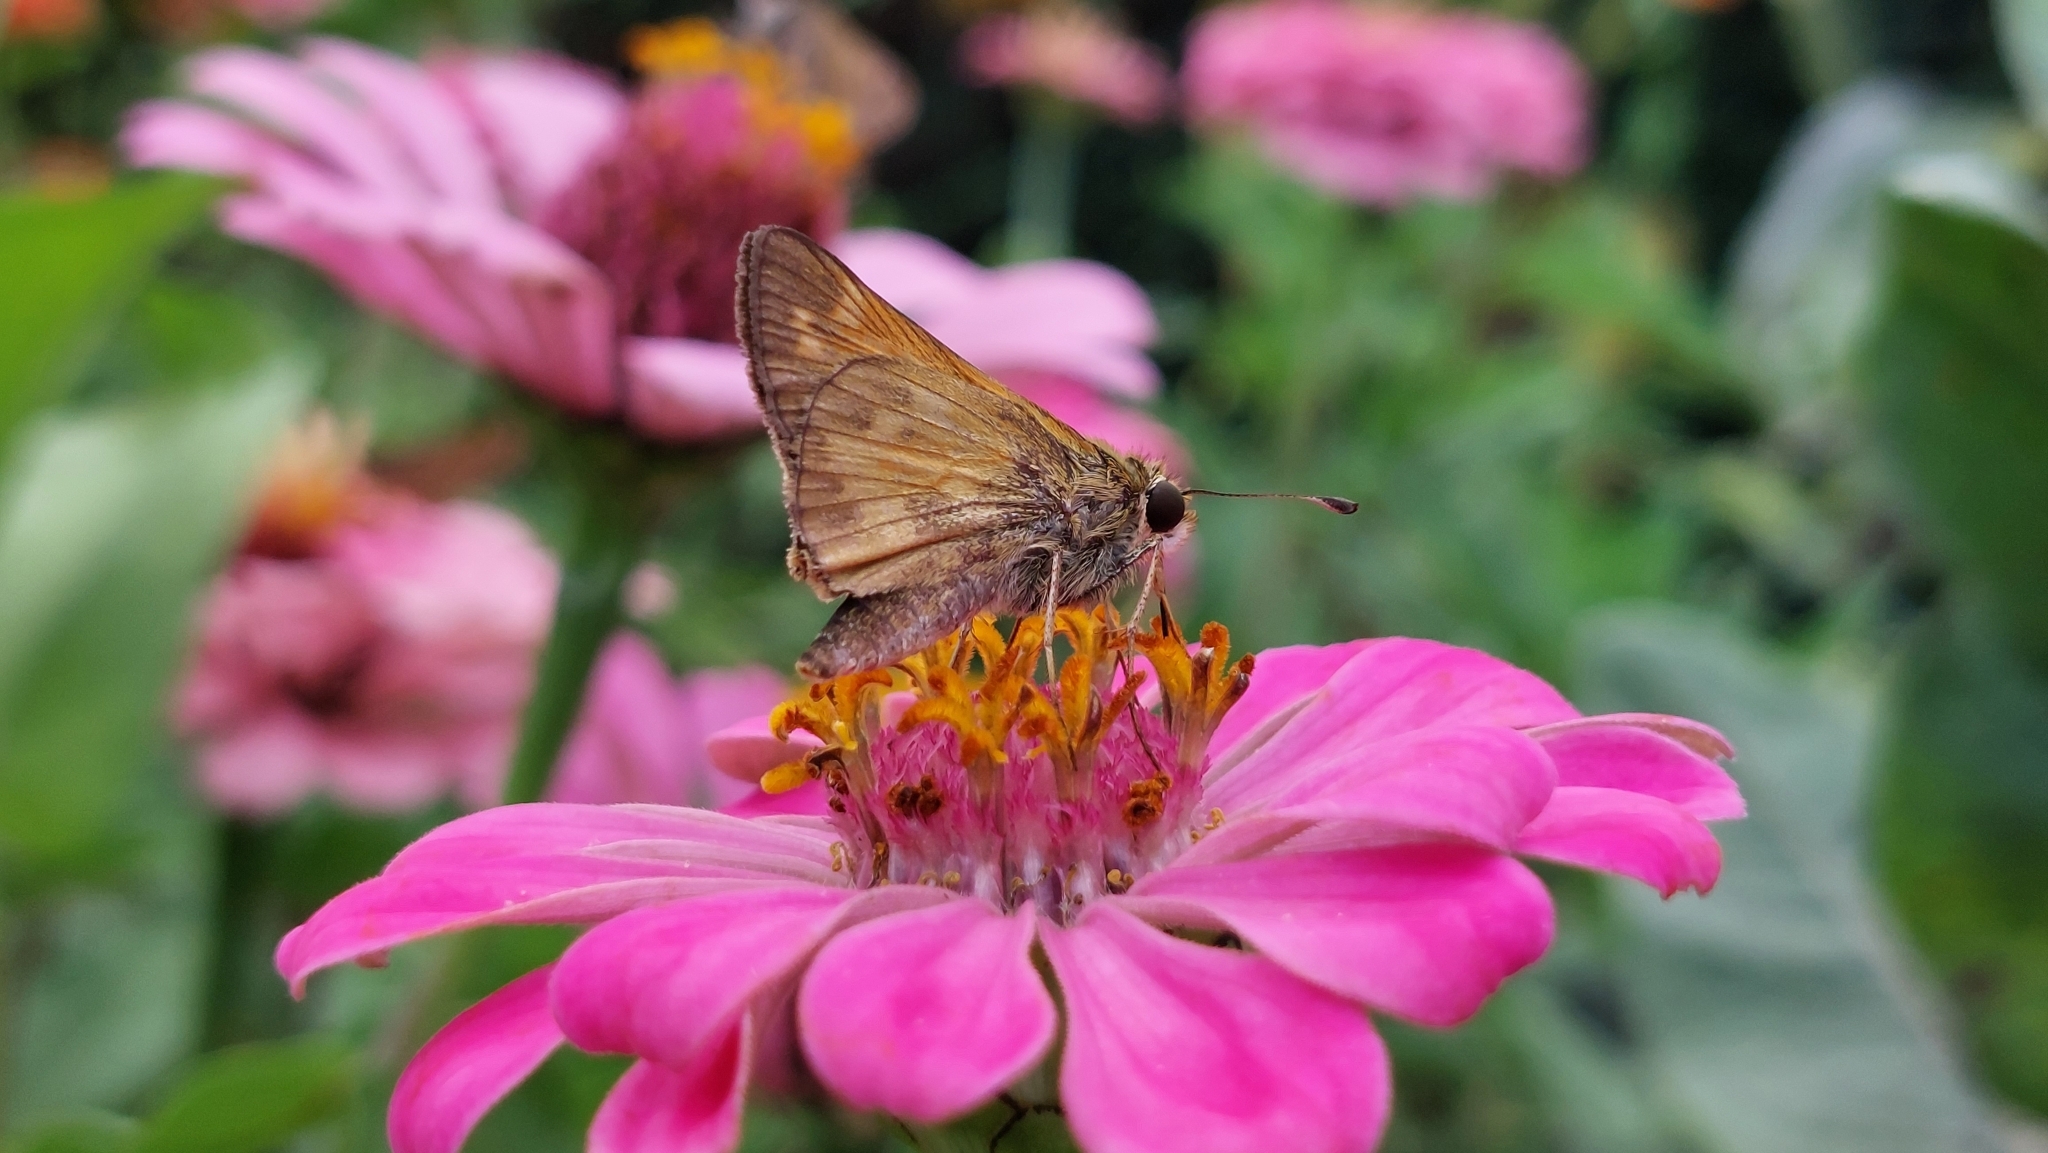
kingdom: Animalia
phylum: Arthropoda
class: Insecta
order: Lepidoptera
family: Hesperiidae
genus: Atalopedes
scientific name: Atalopedes
